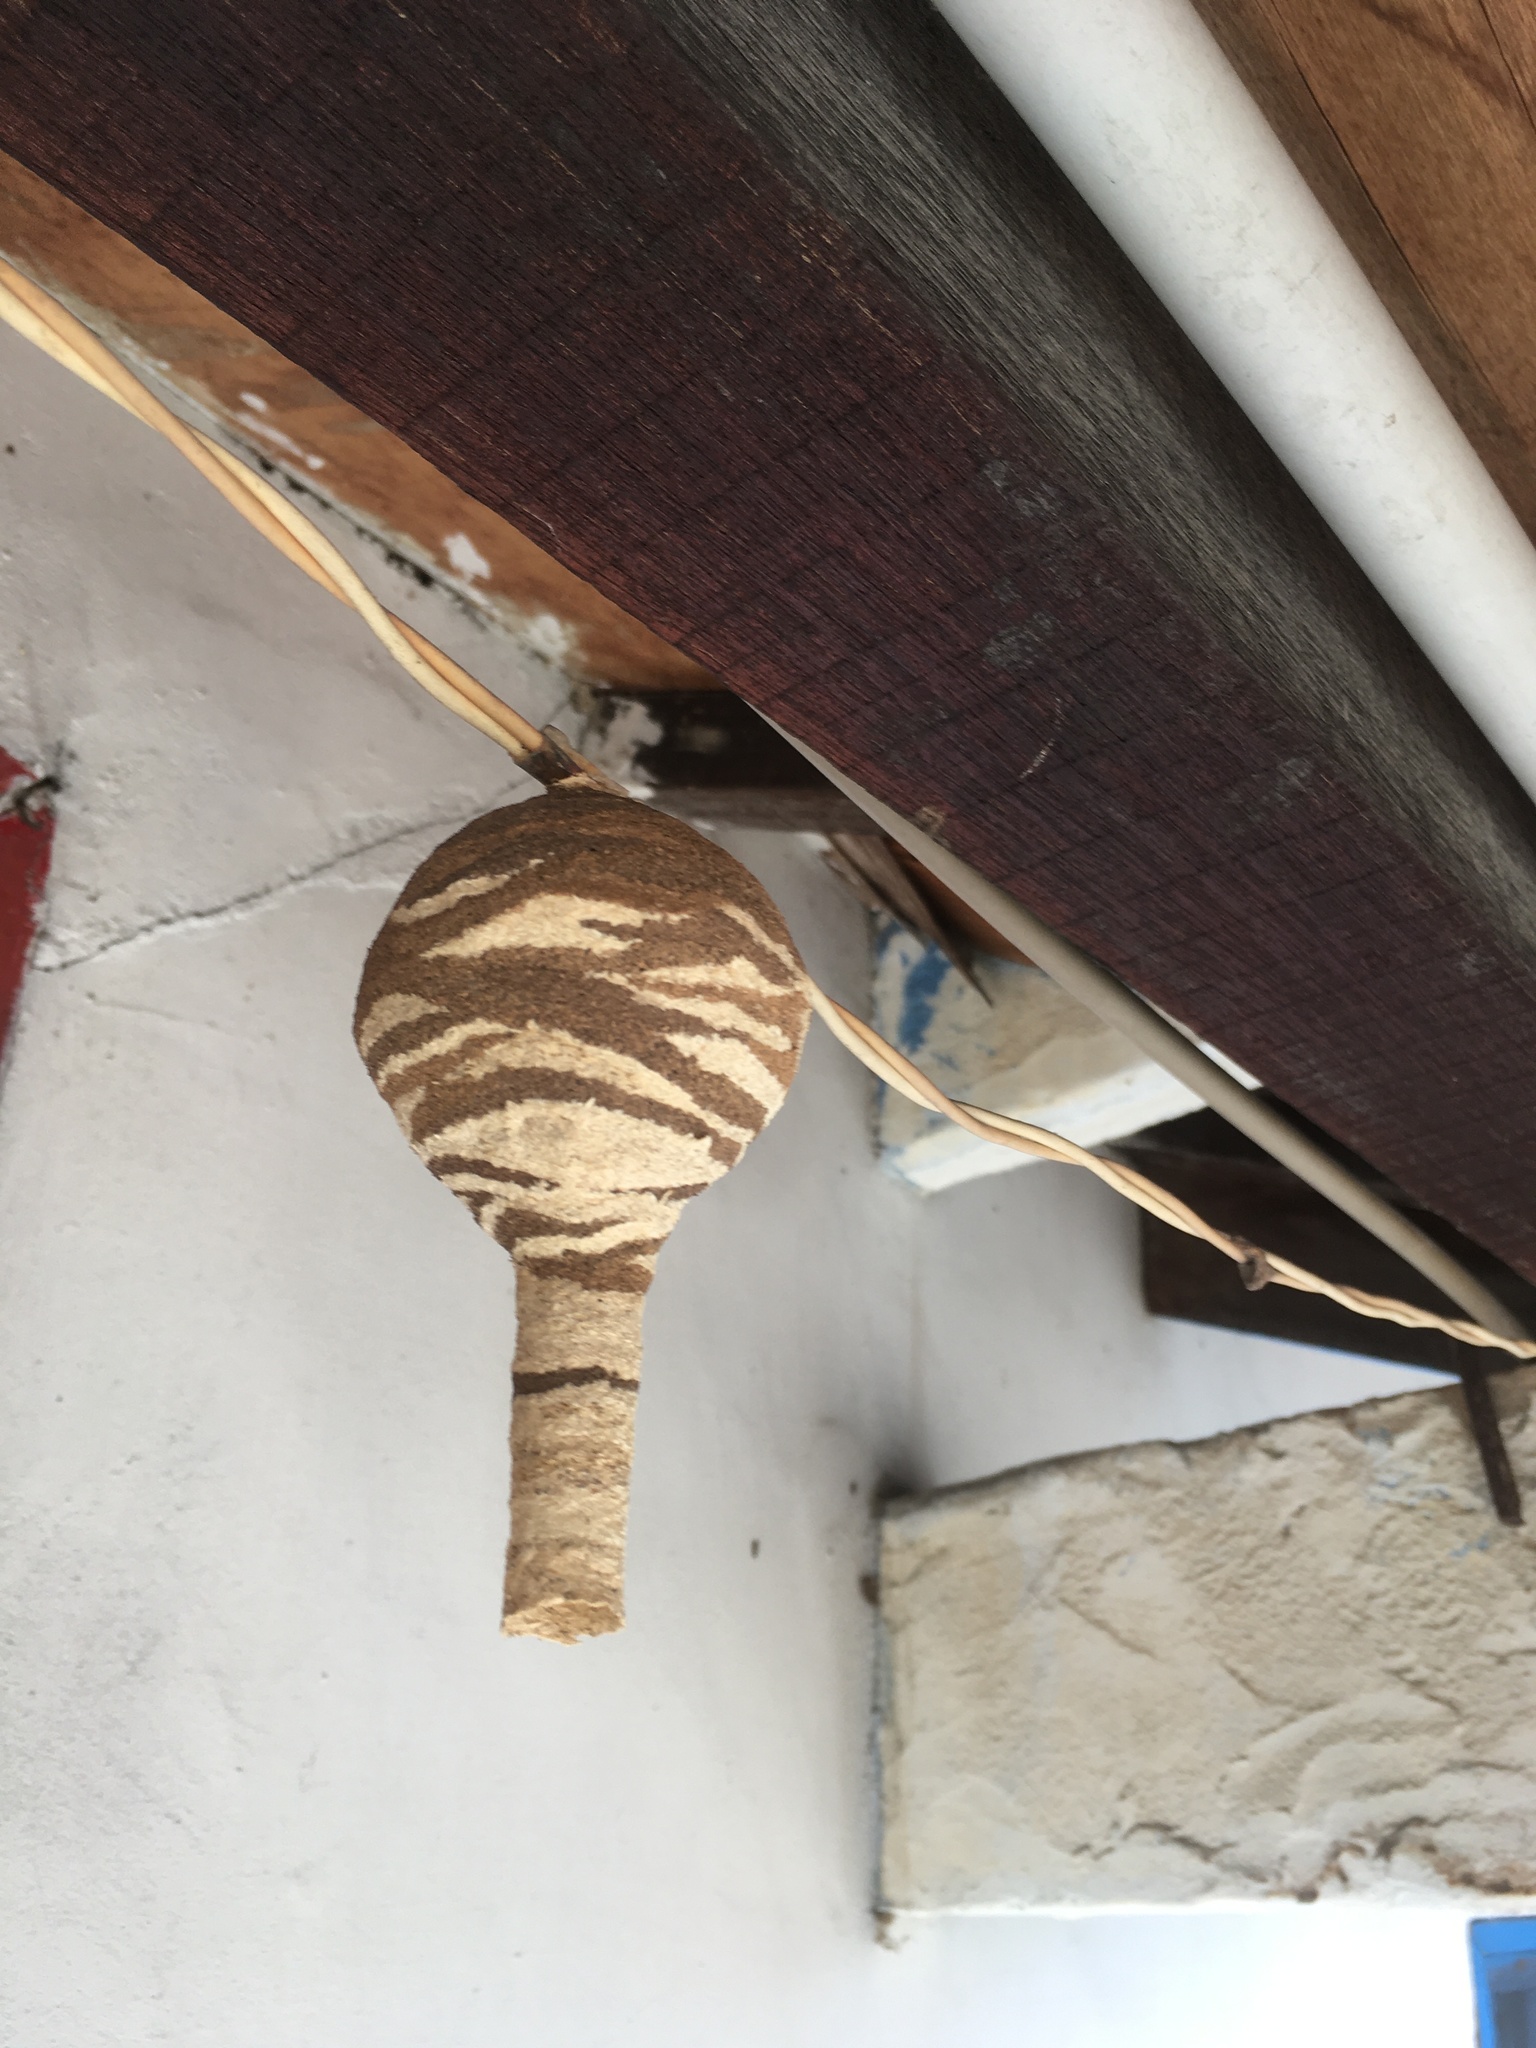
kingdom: Animalia
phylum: Arthropoda
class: Insecta
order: Hymenoptera
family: Vespidae
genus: Vespa
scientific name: Vespa affinis
